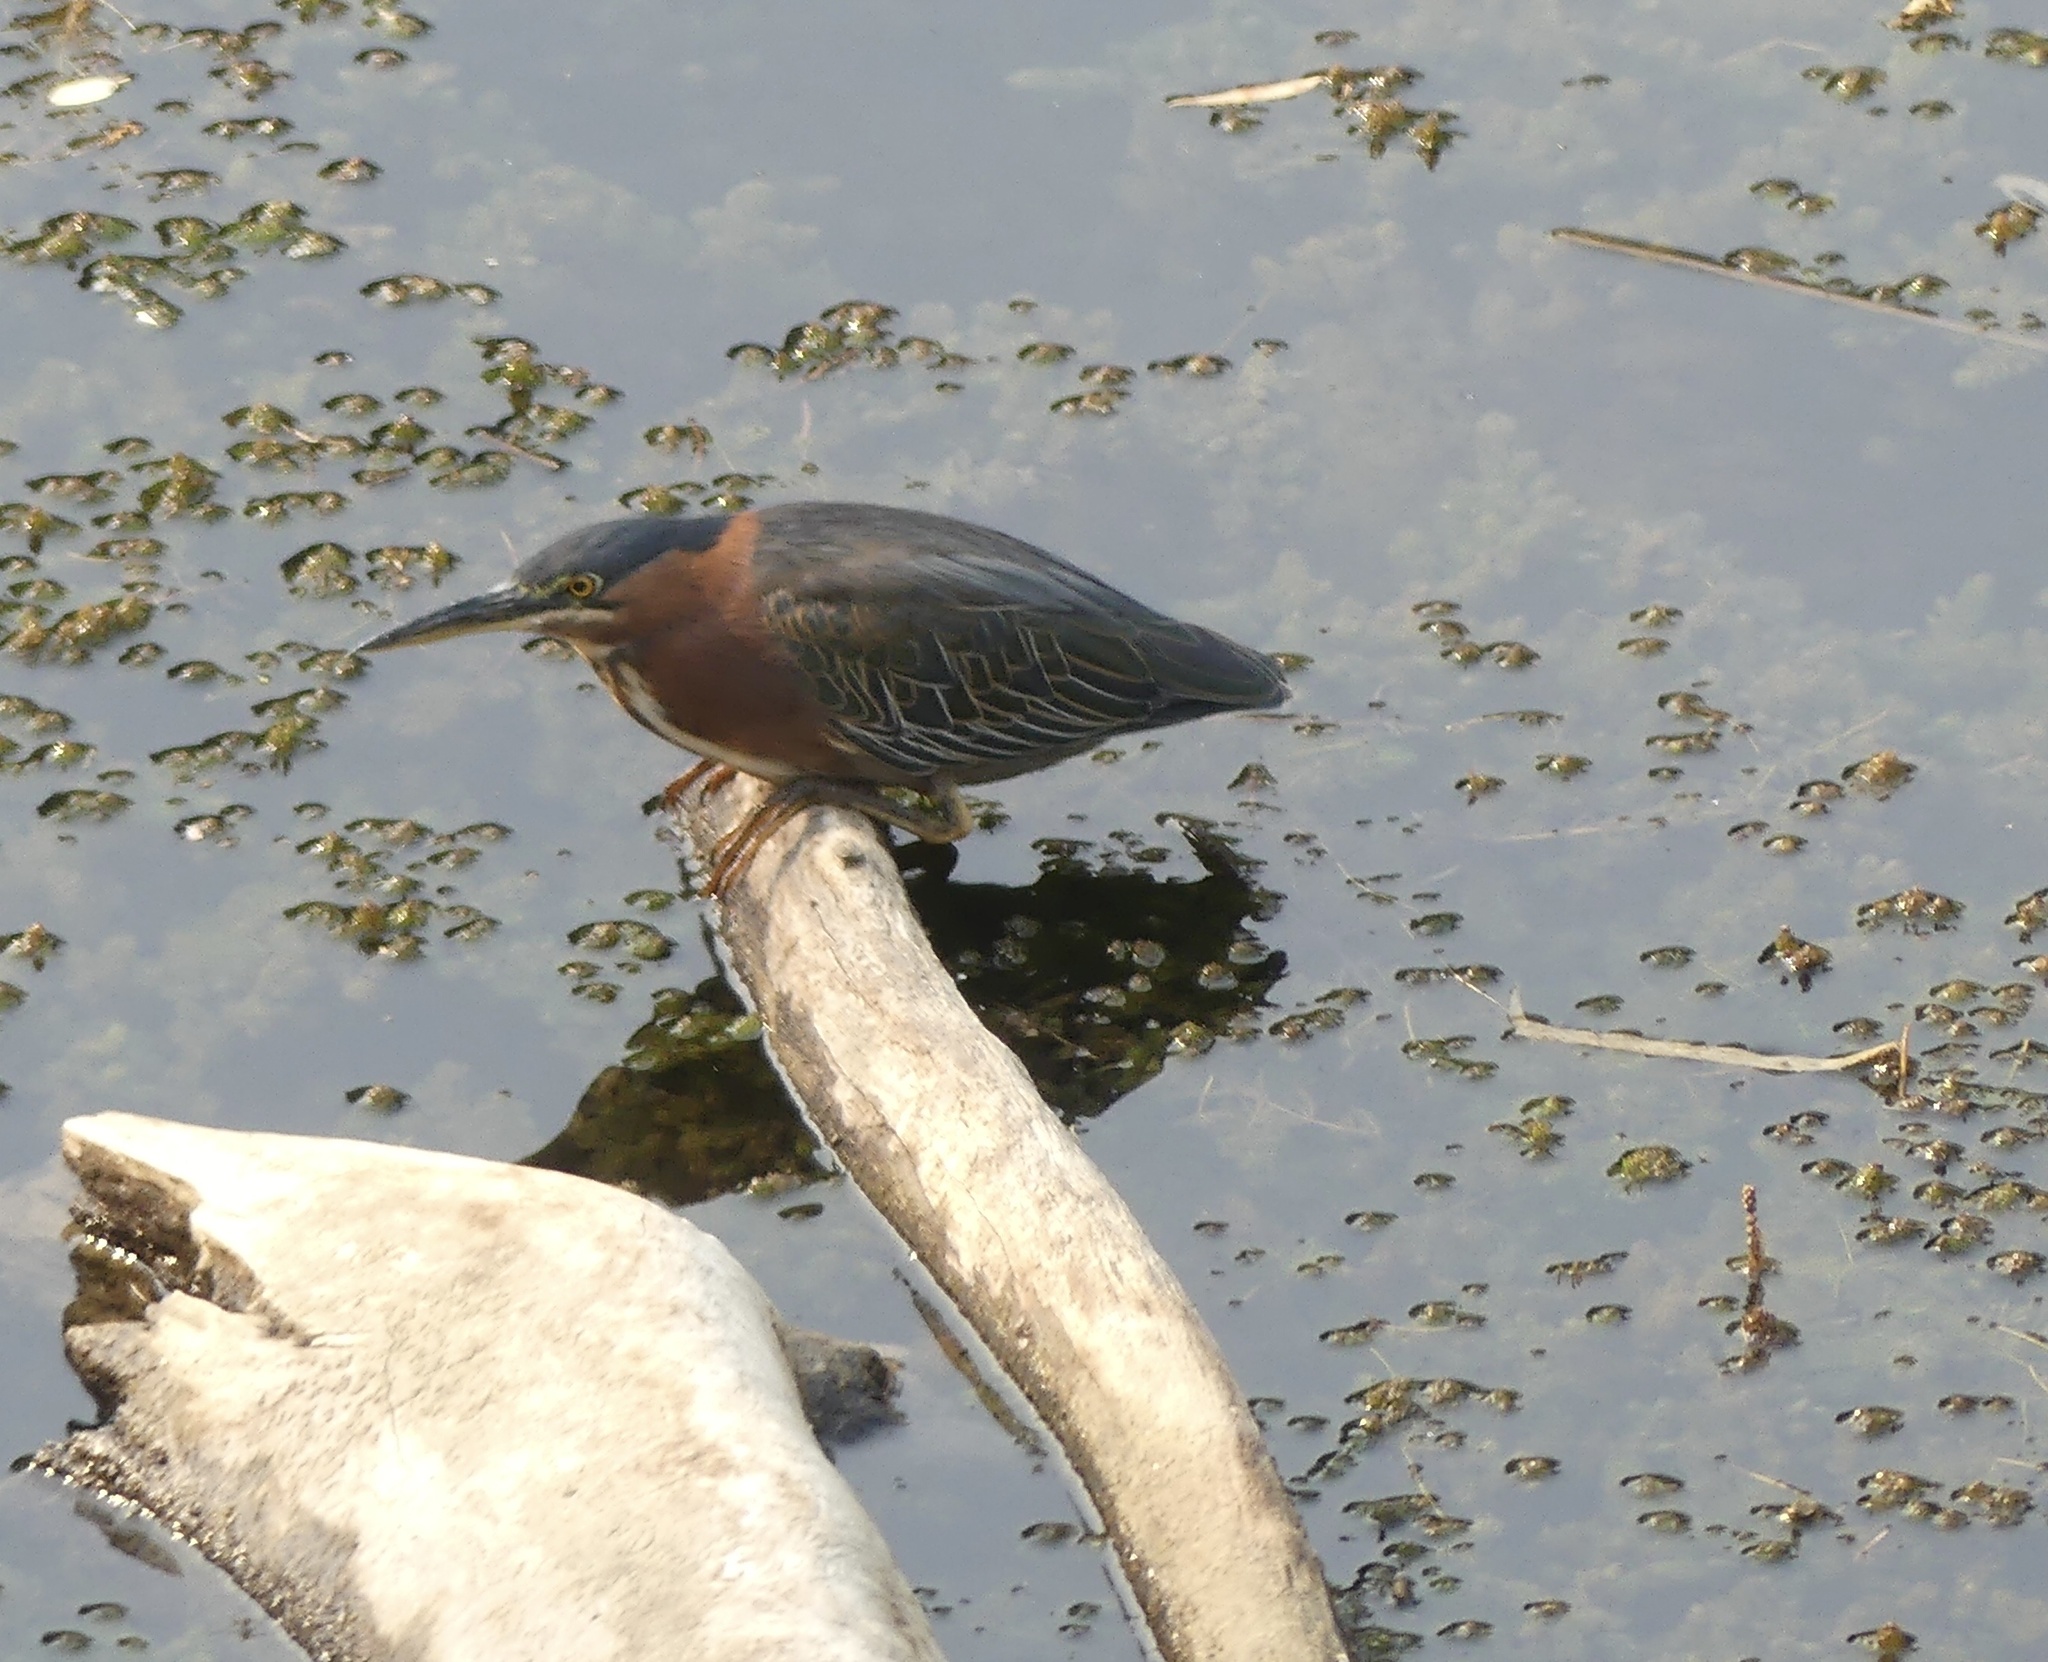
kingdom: Animalia
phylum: Chordata
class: Aves
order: Pelecaniformes
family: Ardeidae
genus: Butorides
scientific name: Butorides virescens
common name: Green heron
